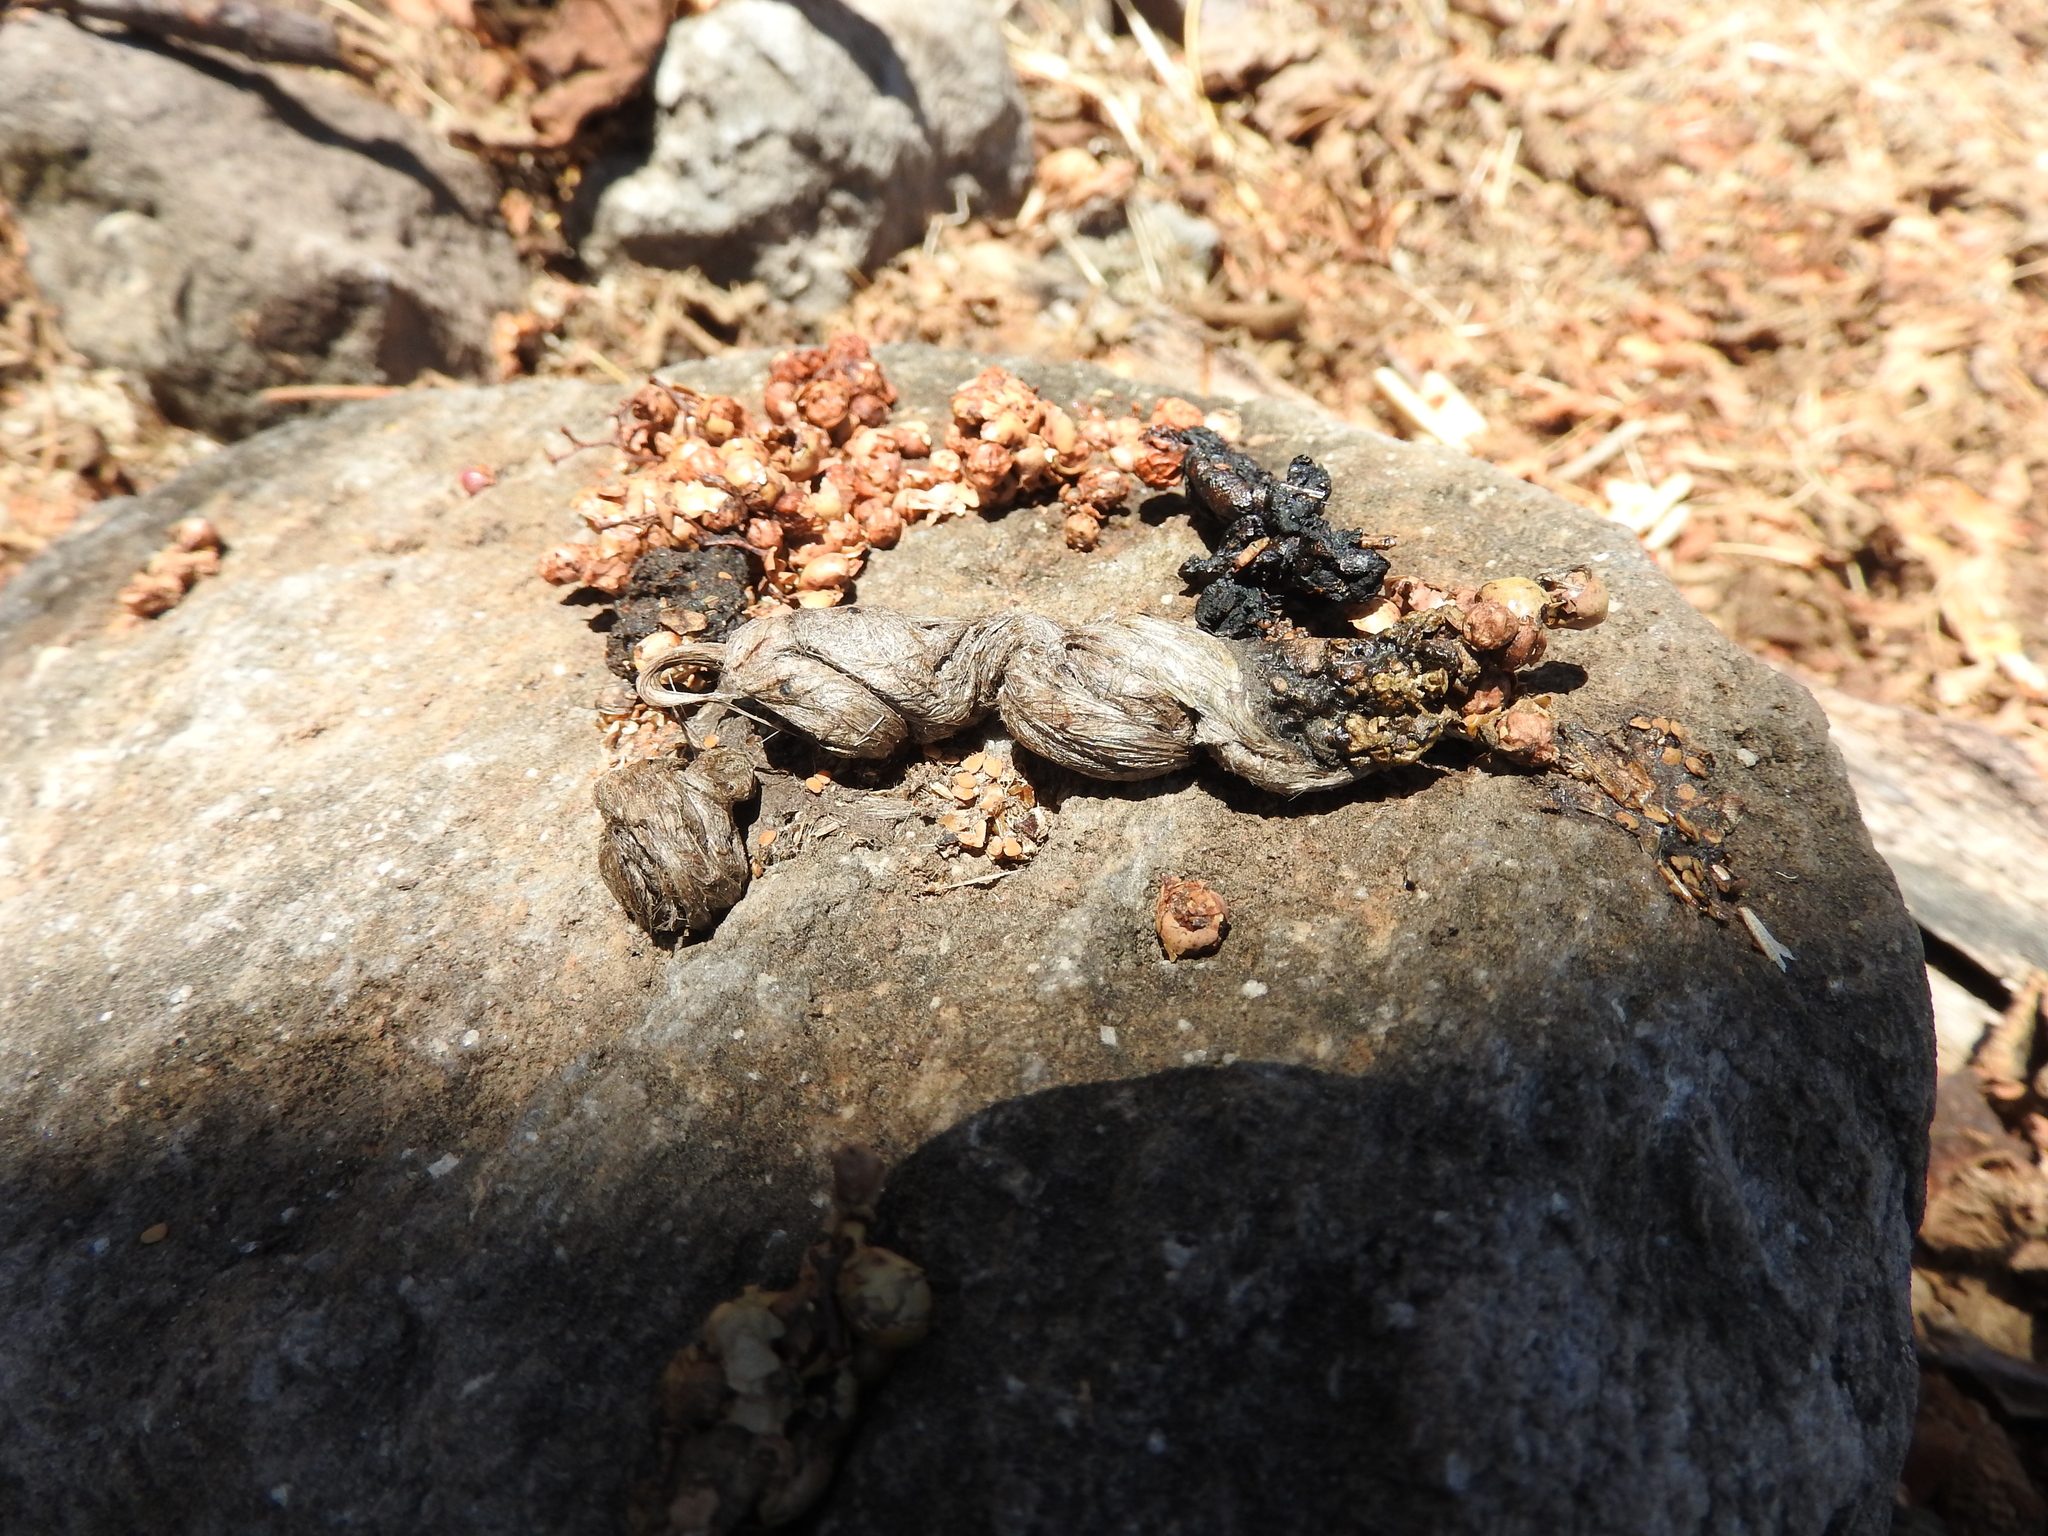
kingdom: Animalia
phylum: Chordata
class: Mammalia
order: Carnivora
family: Canidae
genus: Urocyon
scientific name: Urocyon cinereoargenteus
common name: Gray fox
